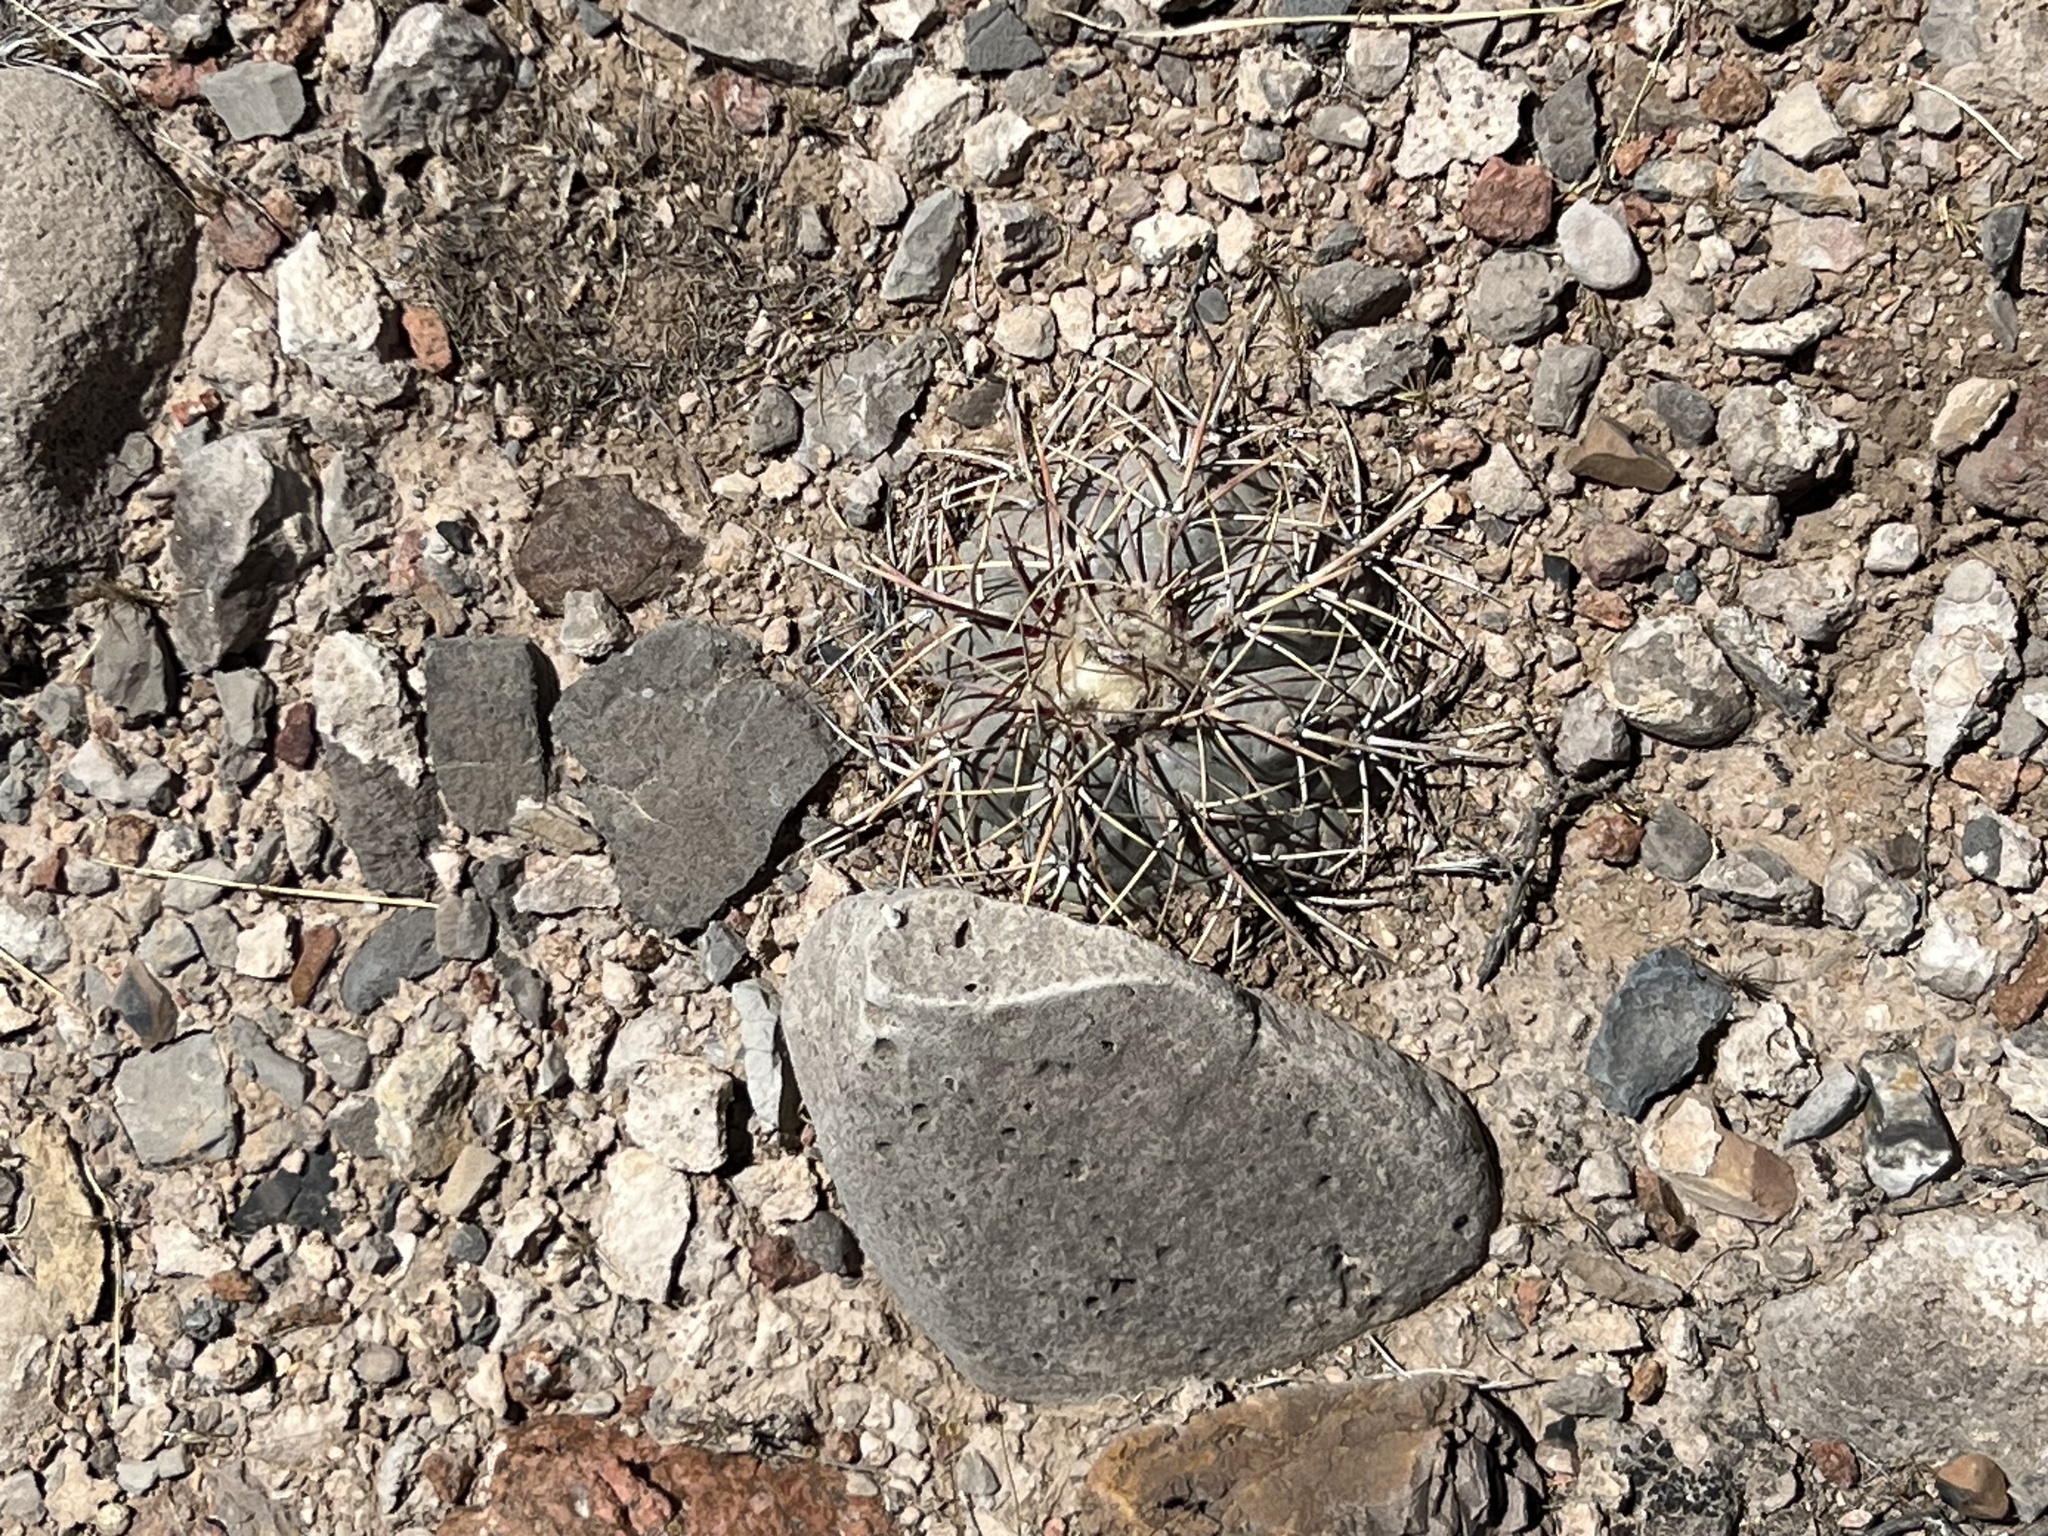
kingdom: Plantae
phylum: Tracheophyta
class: Magnoliopsida
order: Caryophyllales
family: Cactaceae
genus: Echinocactus
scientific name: Echinocactus horizonthalonius
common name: Devilshead
